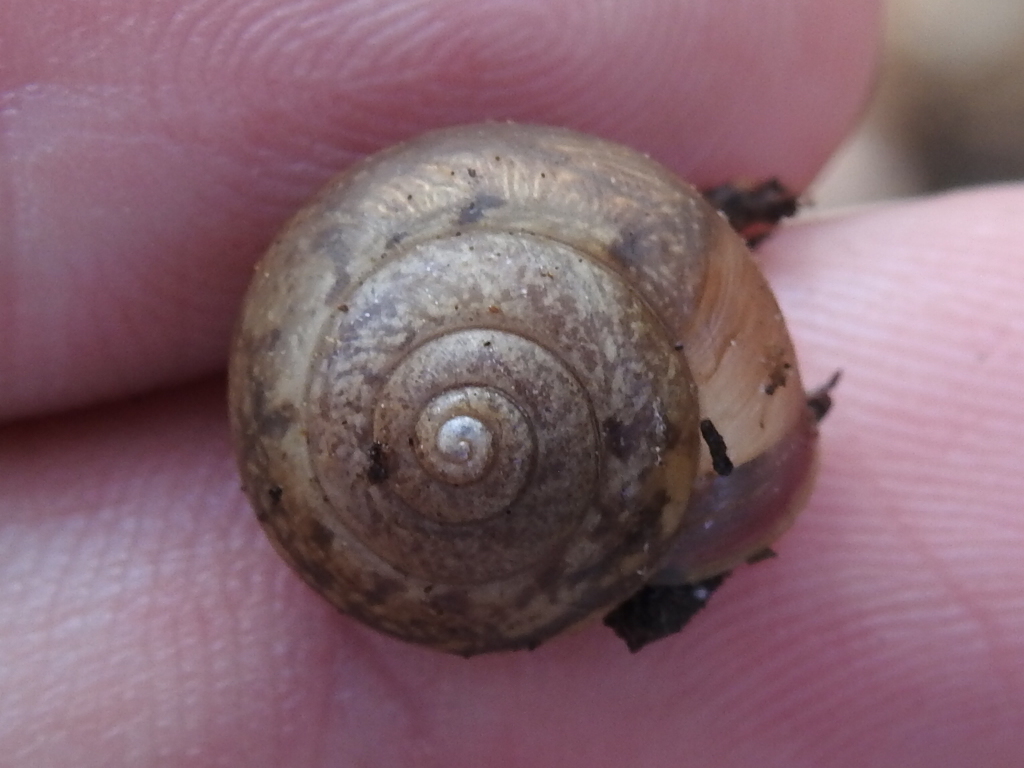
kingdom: Animalia
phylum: Mollusca
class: Gastropoda
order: Stylommatophora
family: Camaenidae
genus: Bradybaena
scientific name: Bradybaena similaris
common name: Asian trampsnail
